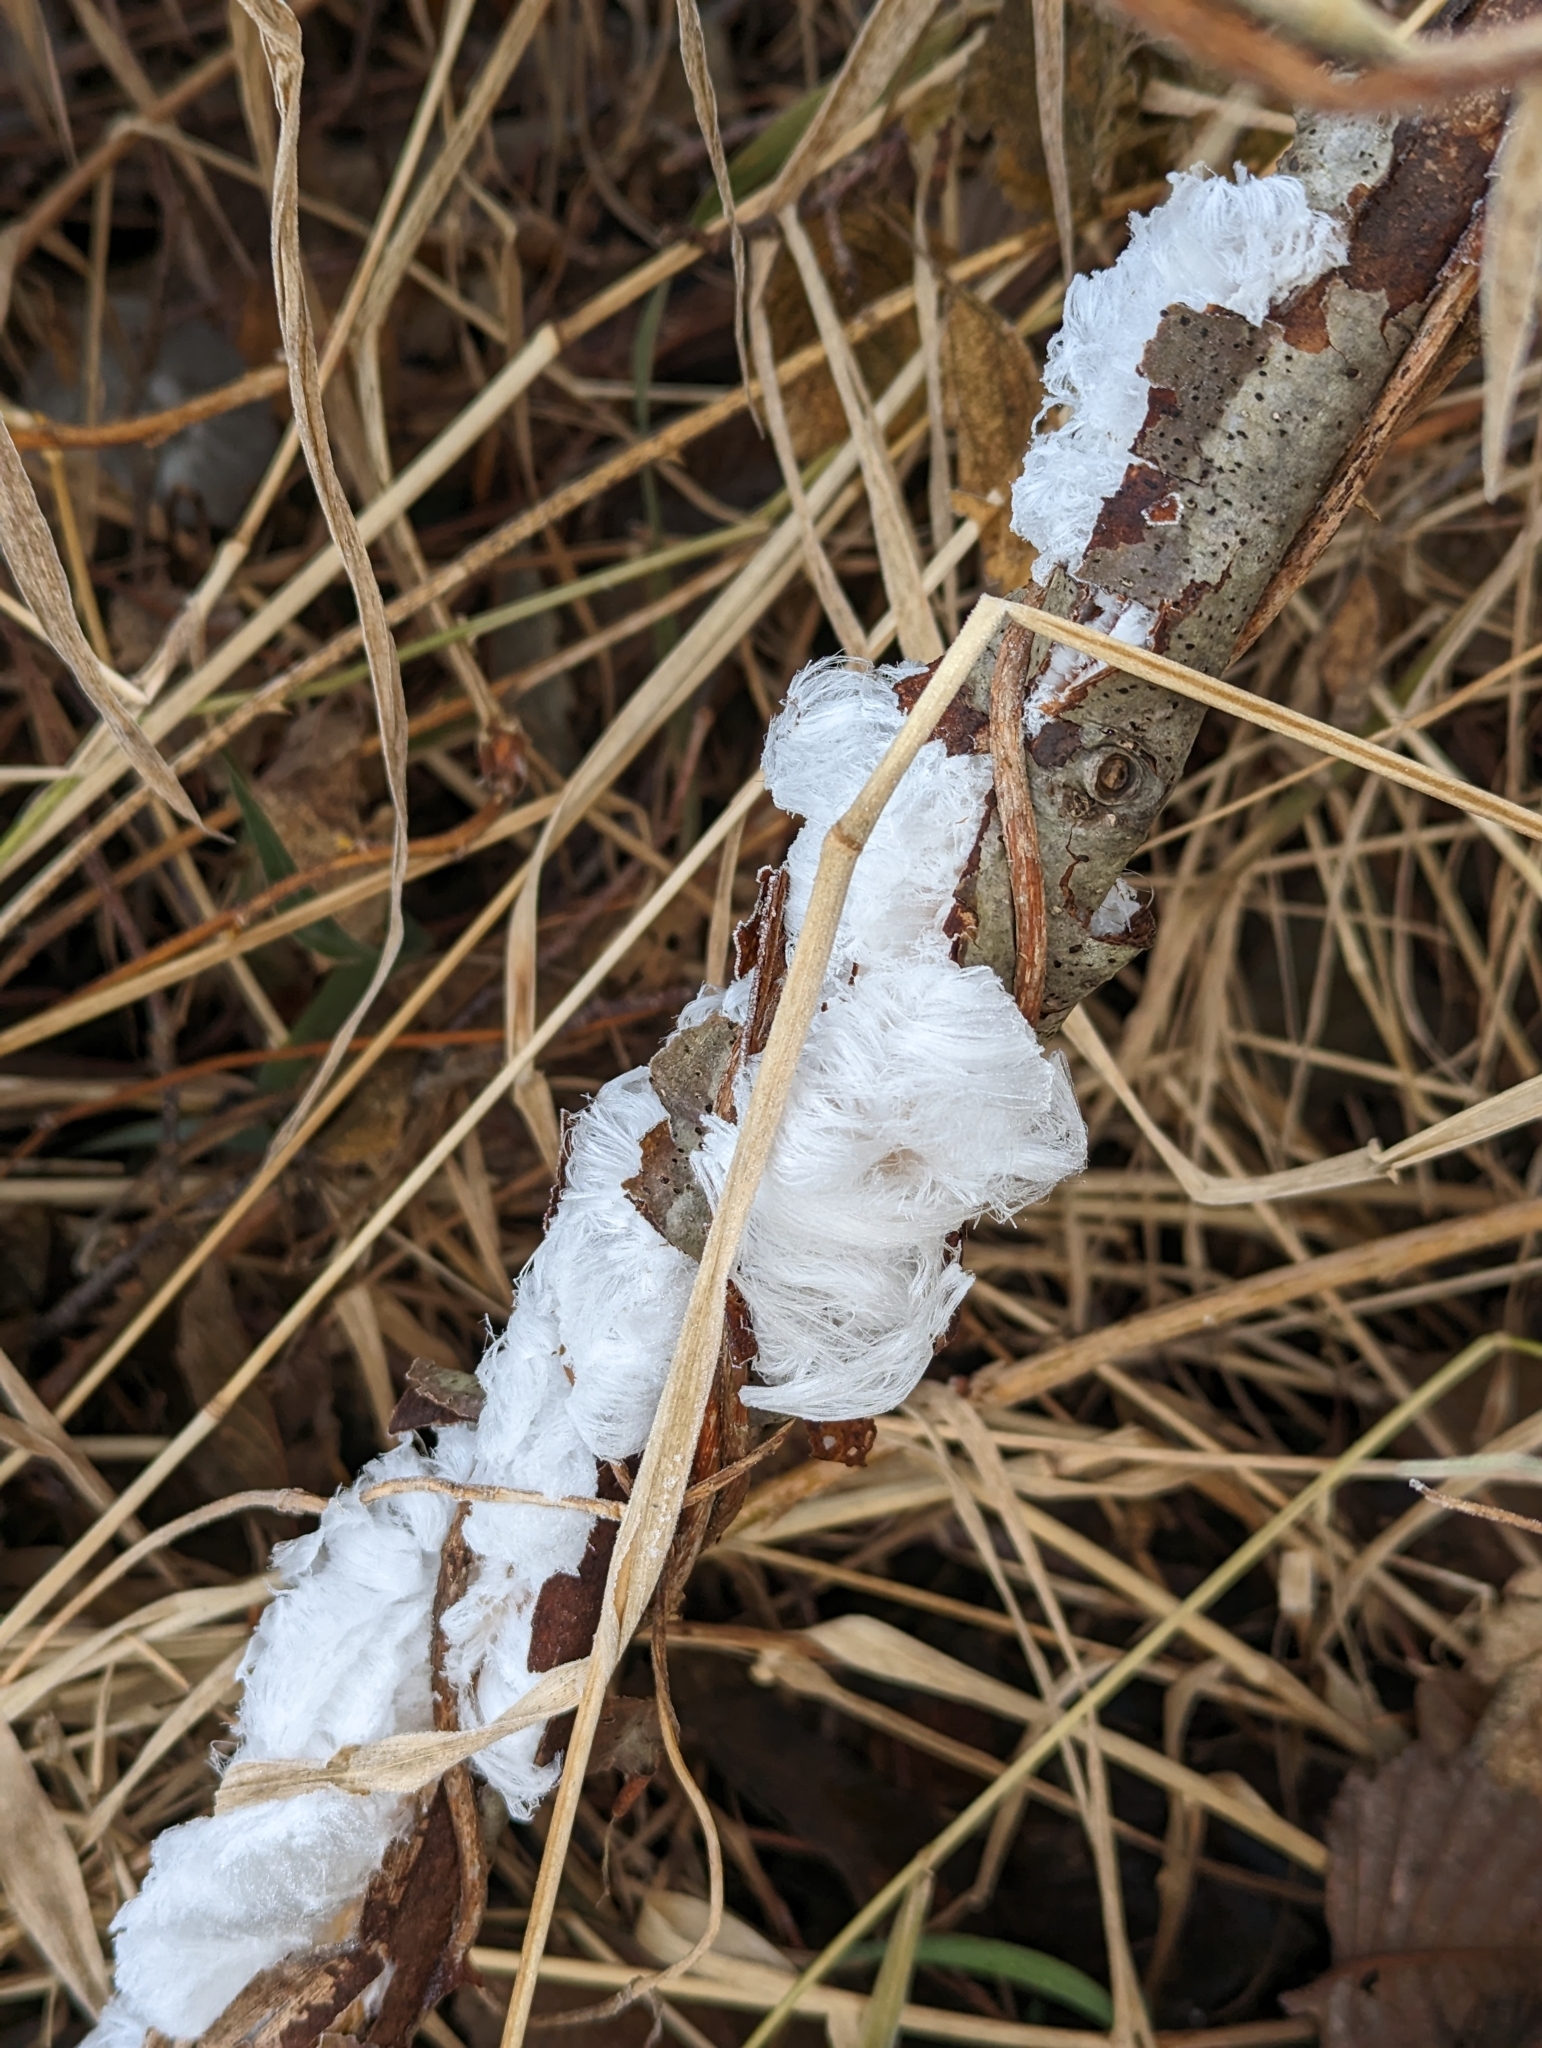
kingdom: Fungi
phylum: Basidiomycota
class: Agaricomycetes
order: Auriculariales
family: Auriculariaceae
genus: Exidiopsis
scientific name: Exidiopsis effusa
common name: Hair ice crust
